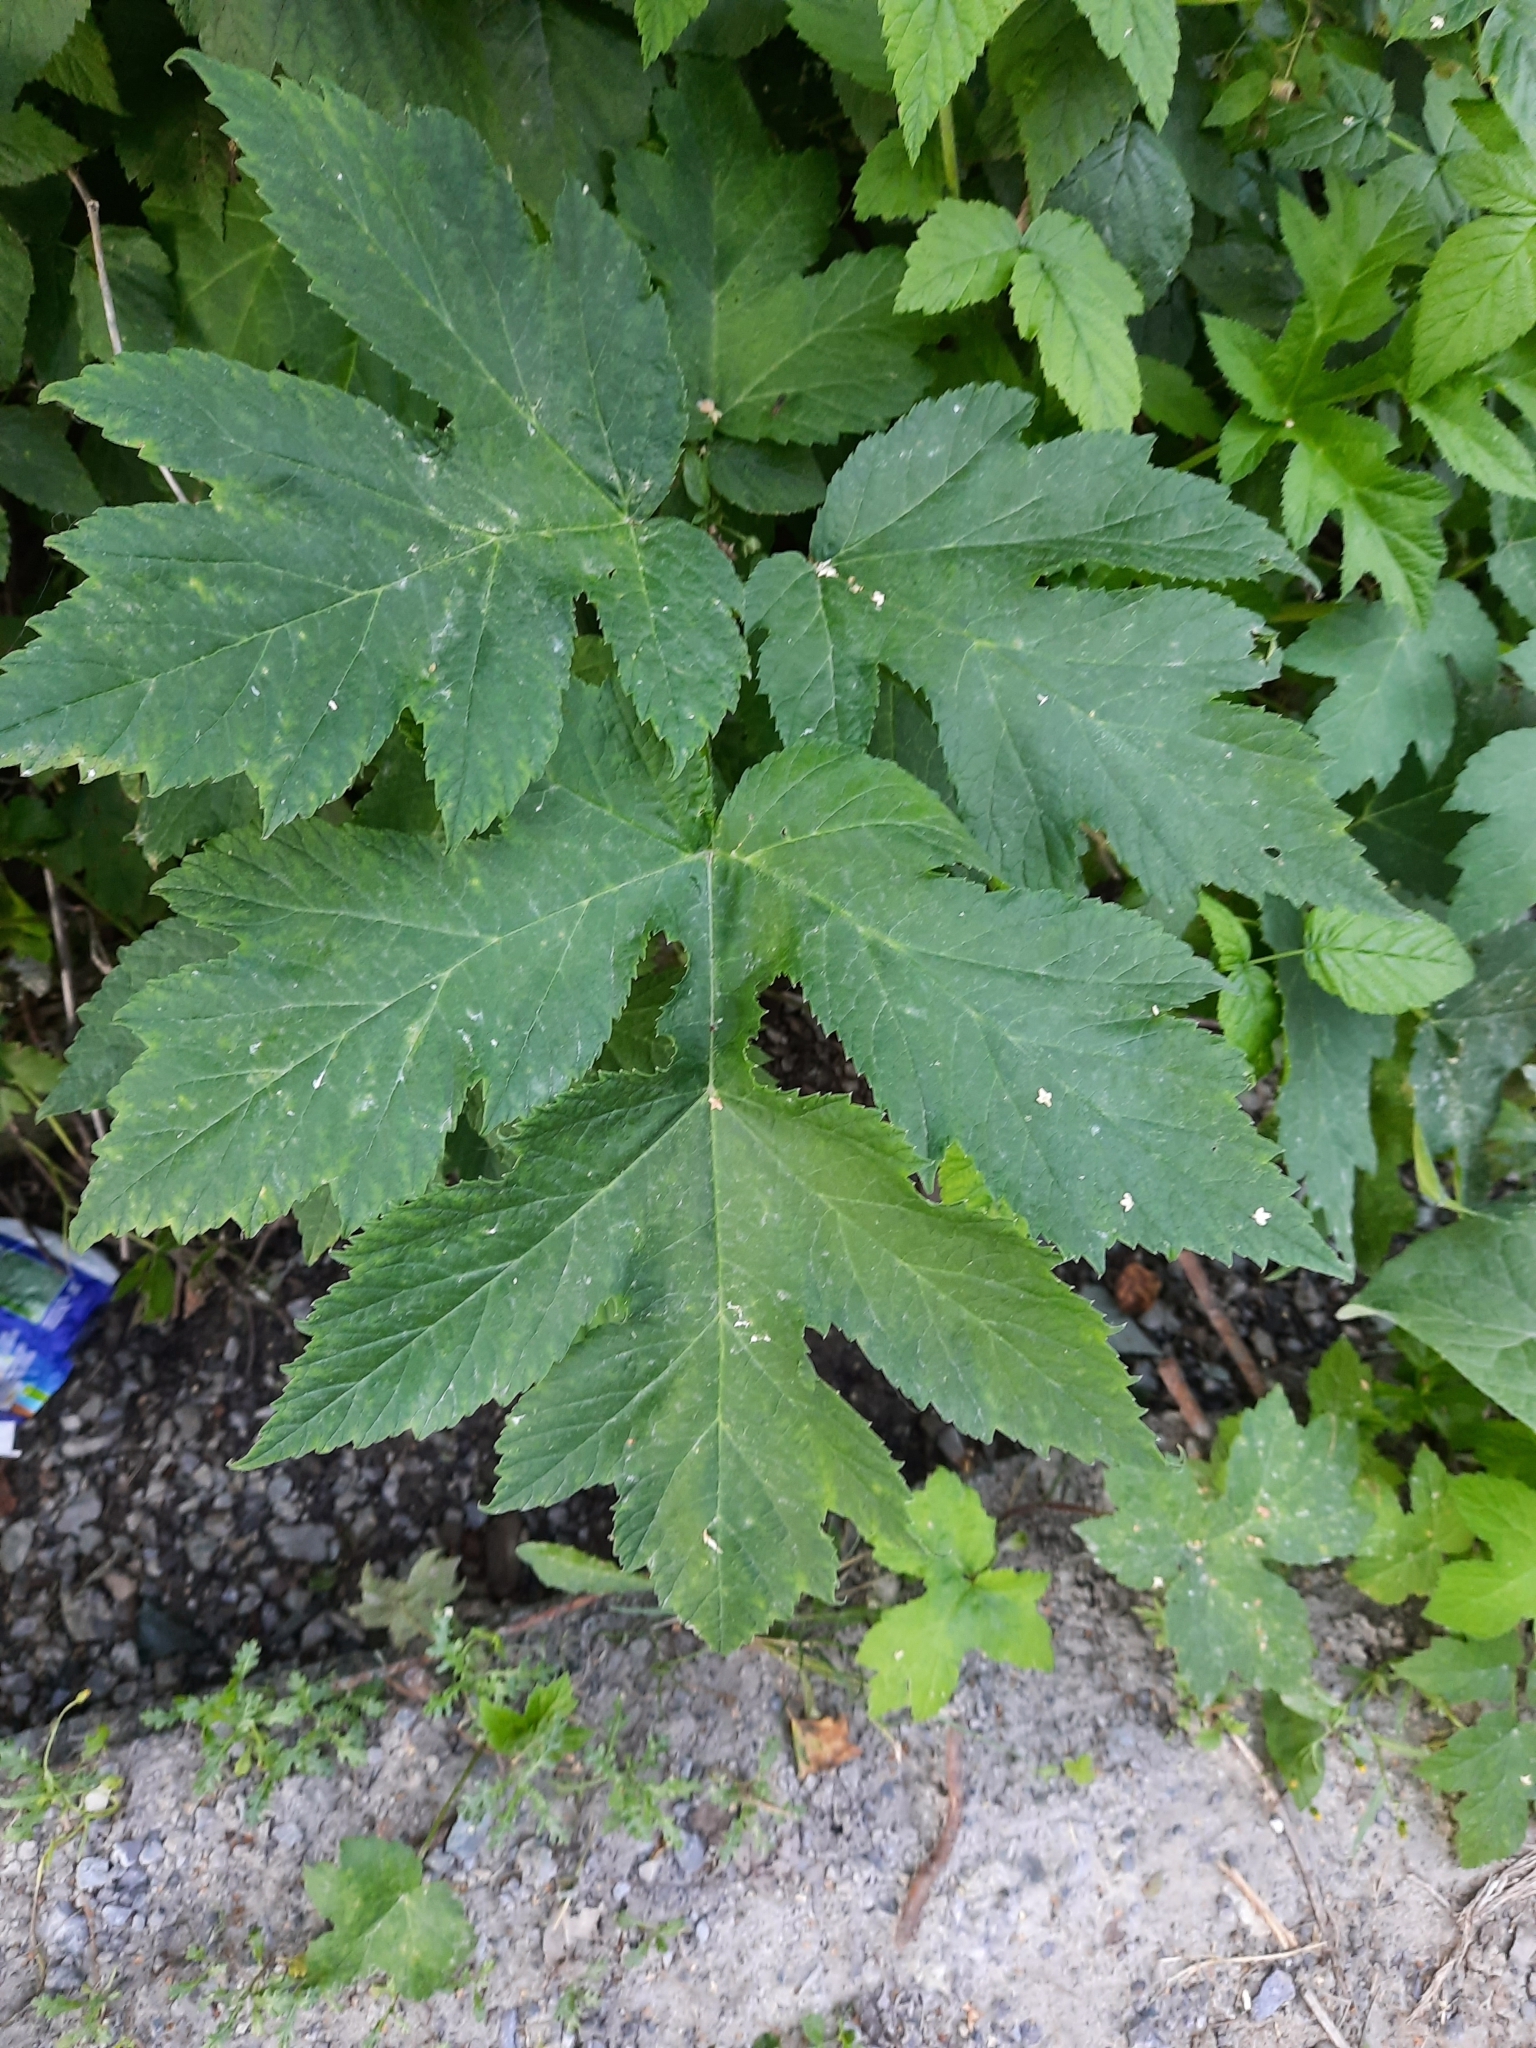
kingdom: Plantae
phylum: Tracheophyta
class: Magnoliopsida
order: Apiales
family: Apiaceae
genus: Heracleum
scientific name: Heracleum dissectum
